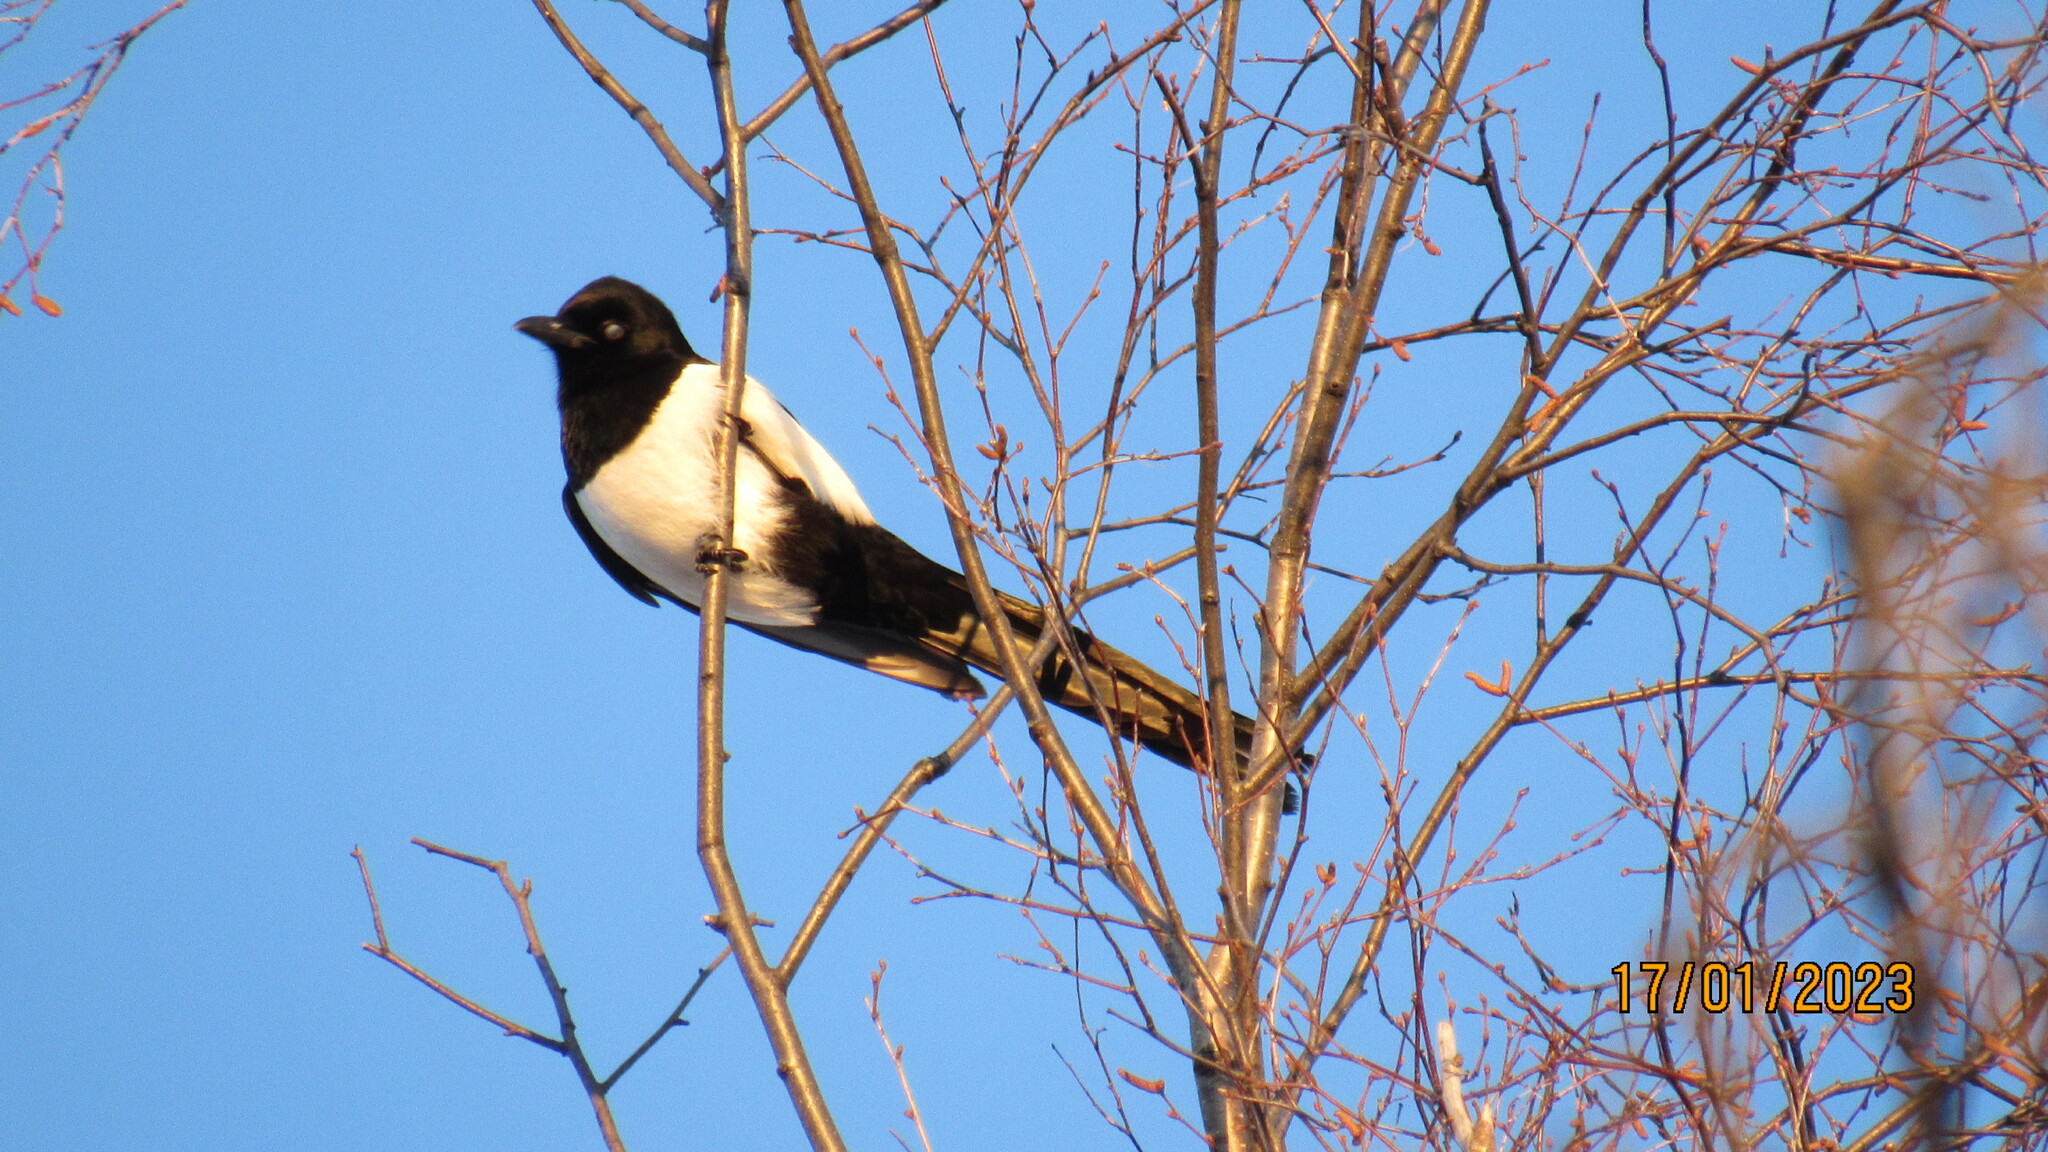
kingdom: Animalia
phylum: Chordata
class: Aves
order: Passeriformes
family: Corvidae
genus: Pica
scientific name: Pica pica
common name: Eurasian magpie
